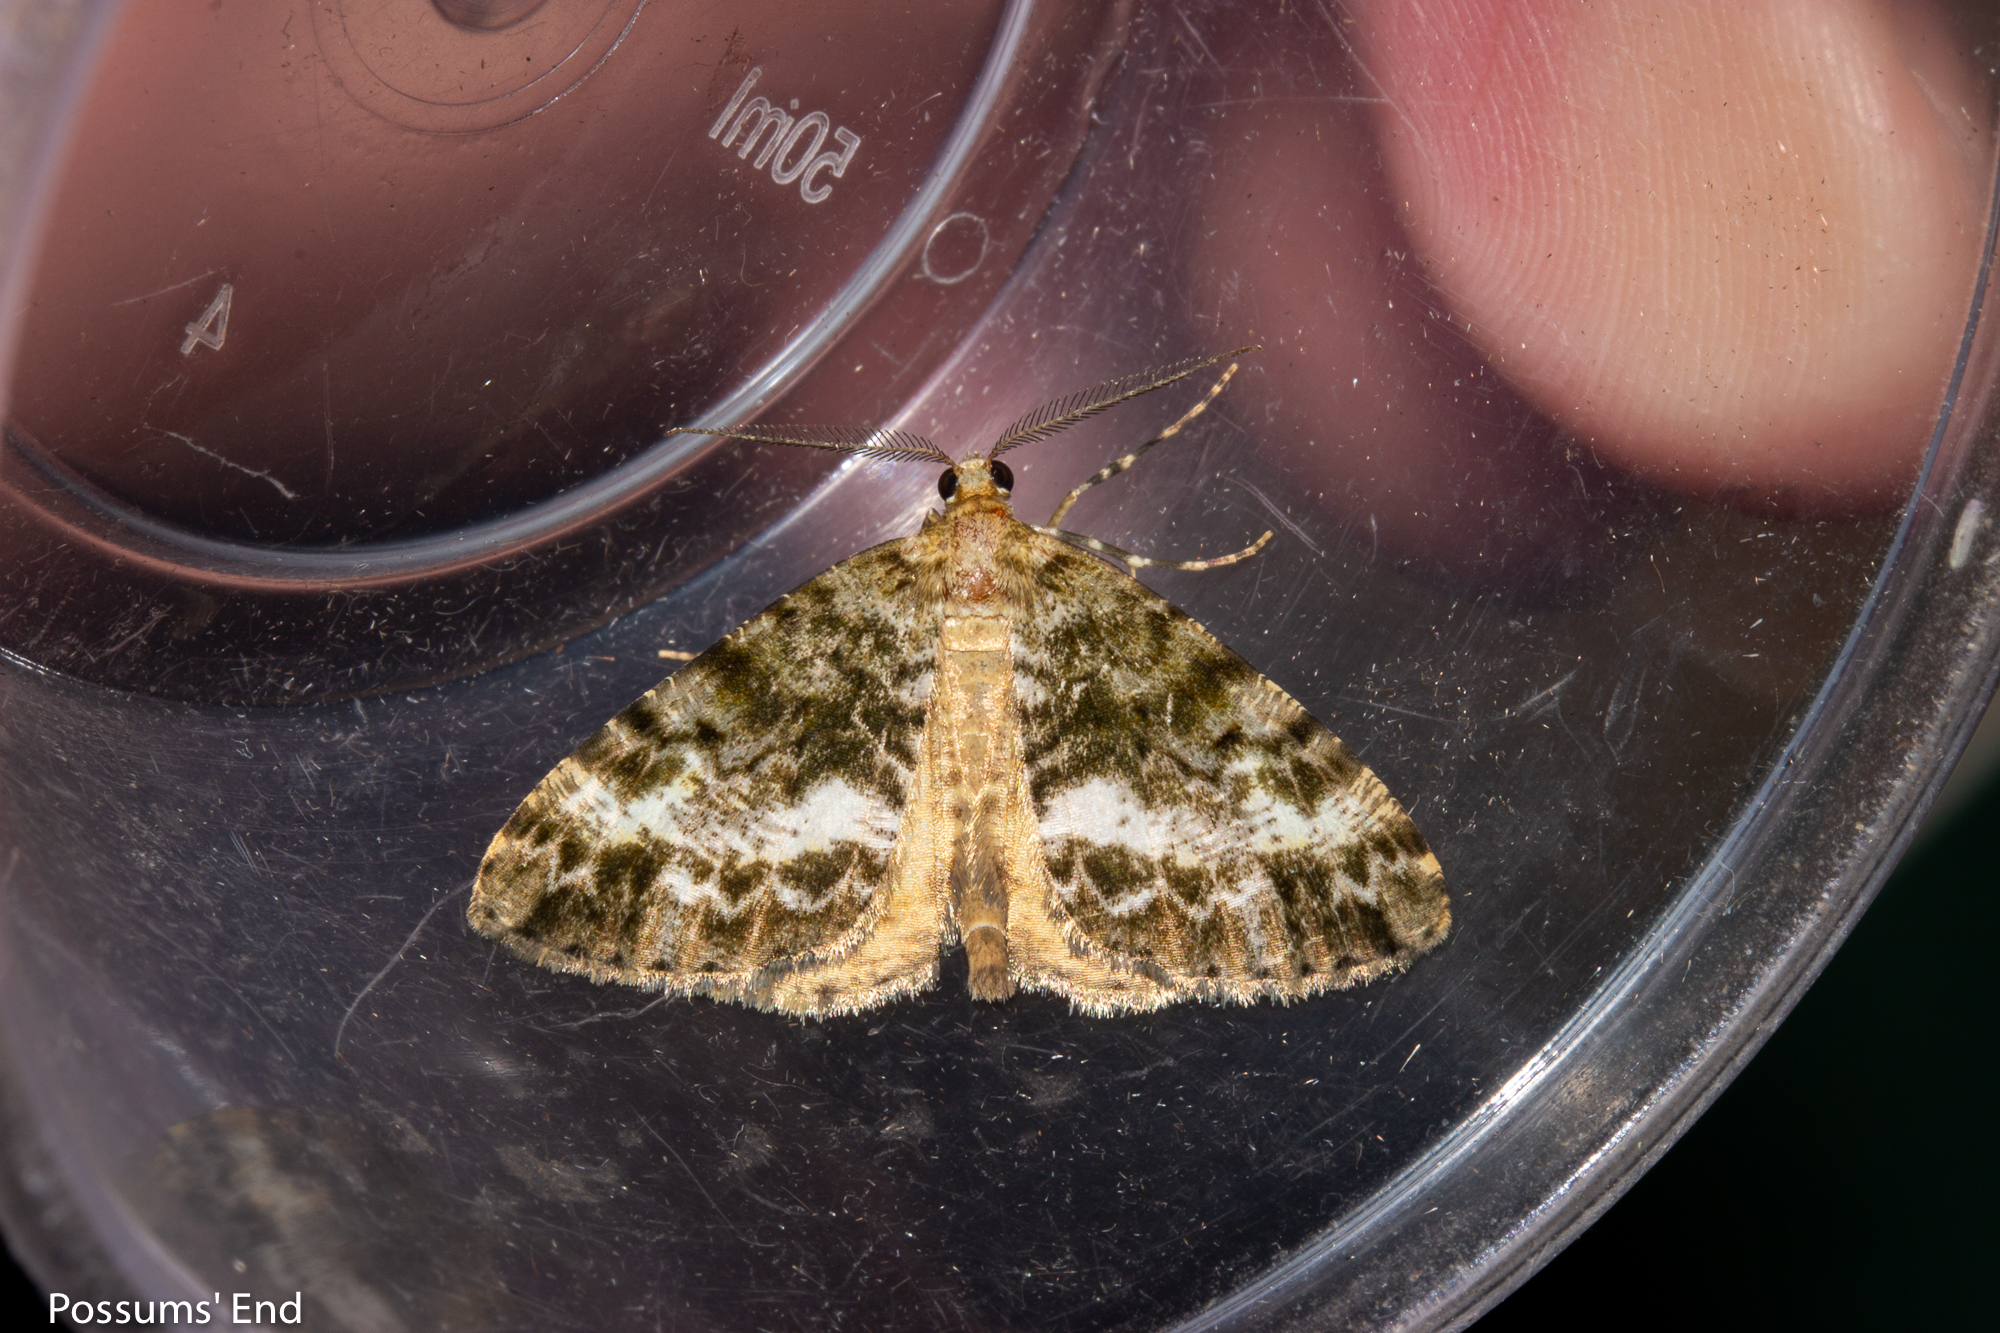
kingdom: Animalia
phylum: Arthropoda
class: Insecta
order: Lepidoptera
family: Geometridae
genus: Pseudocoremia
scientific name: Pseudocoremia lactiflua
